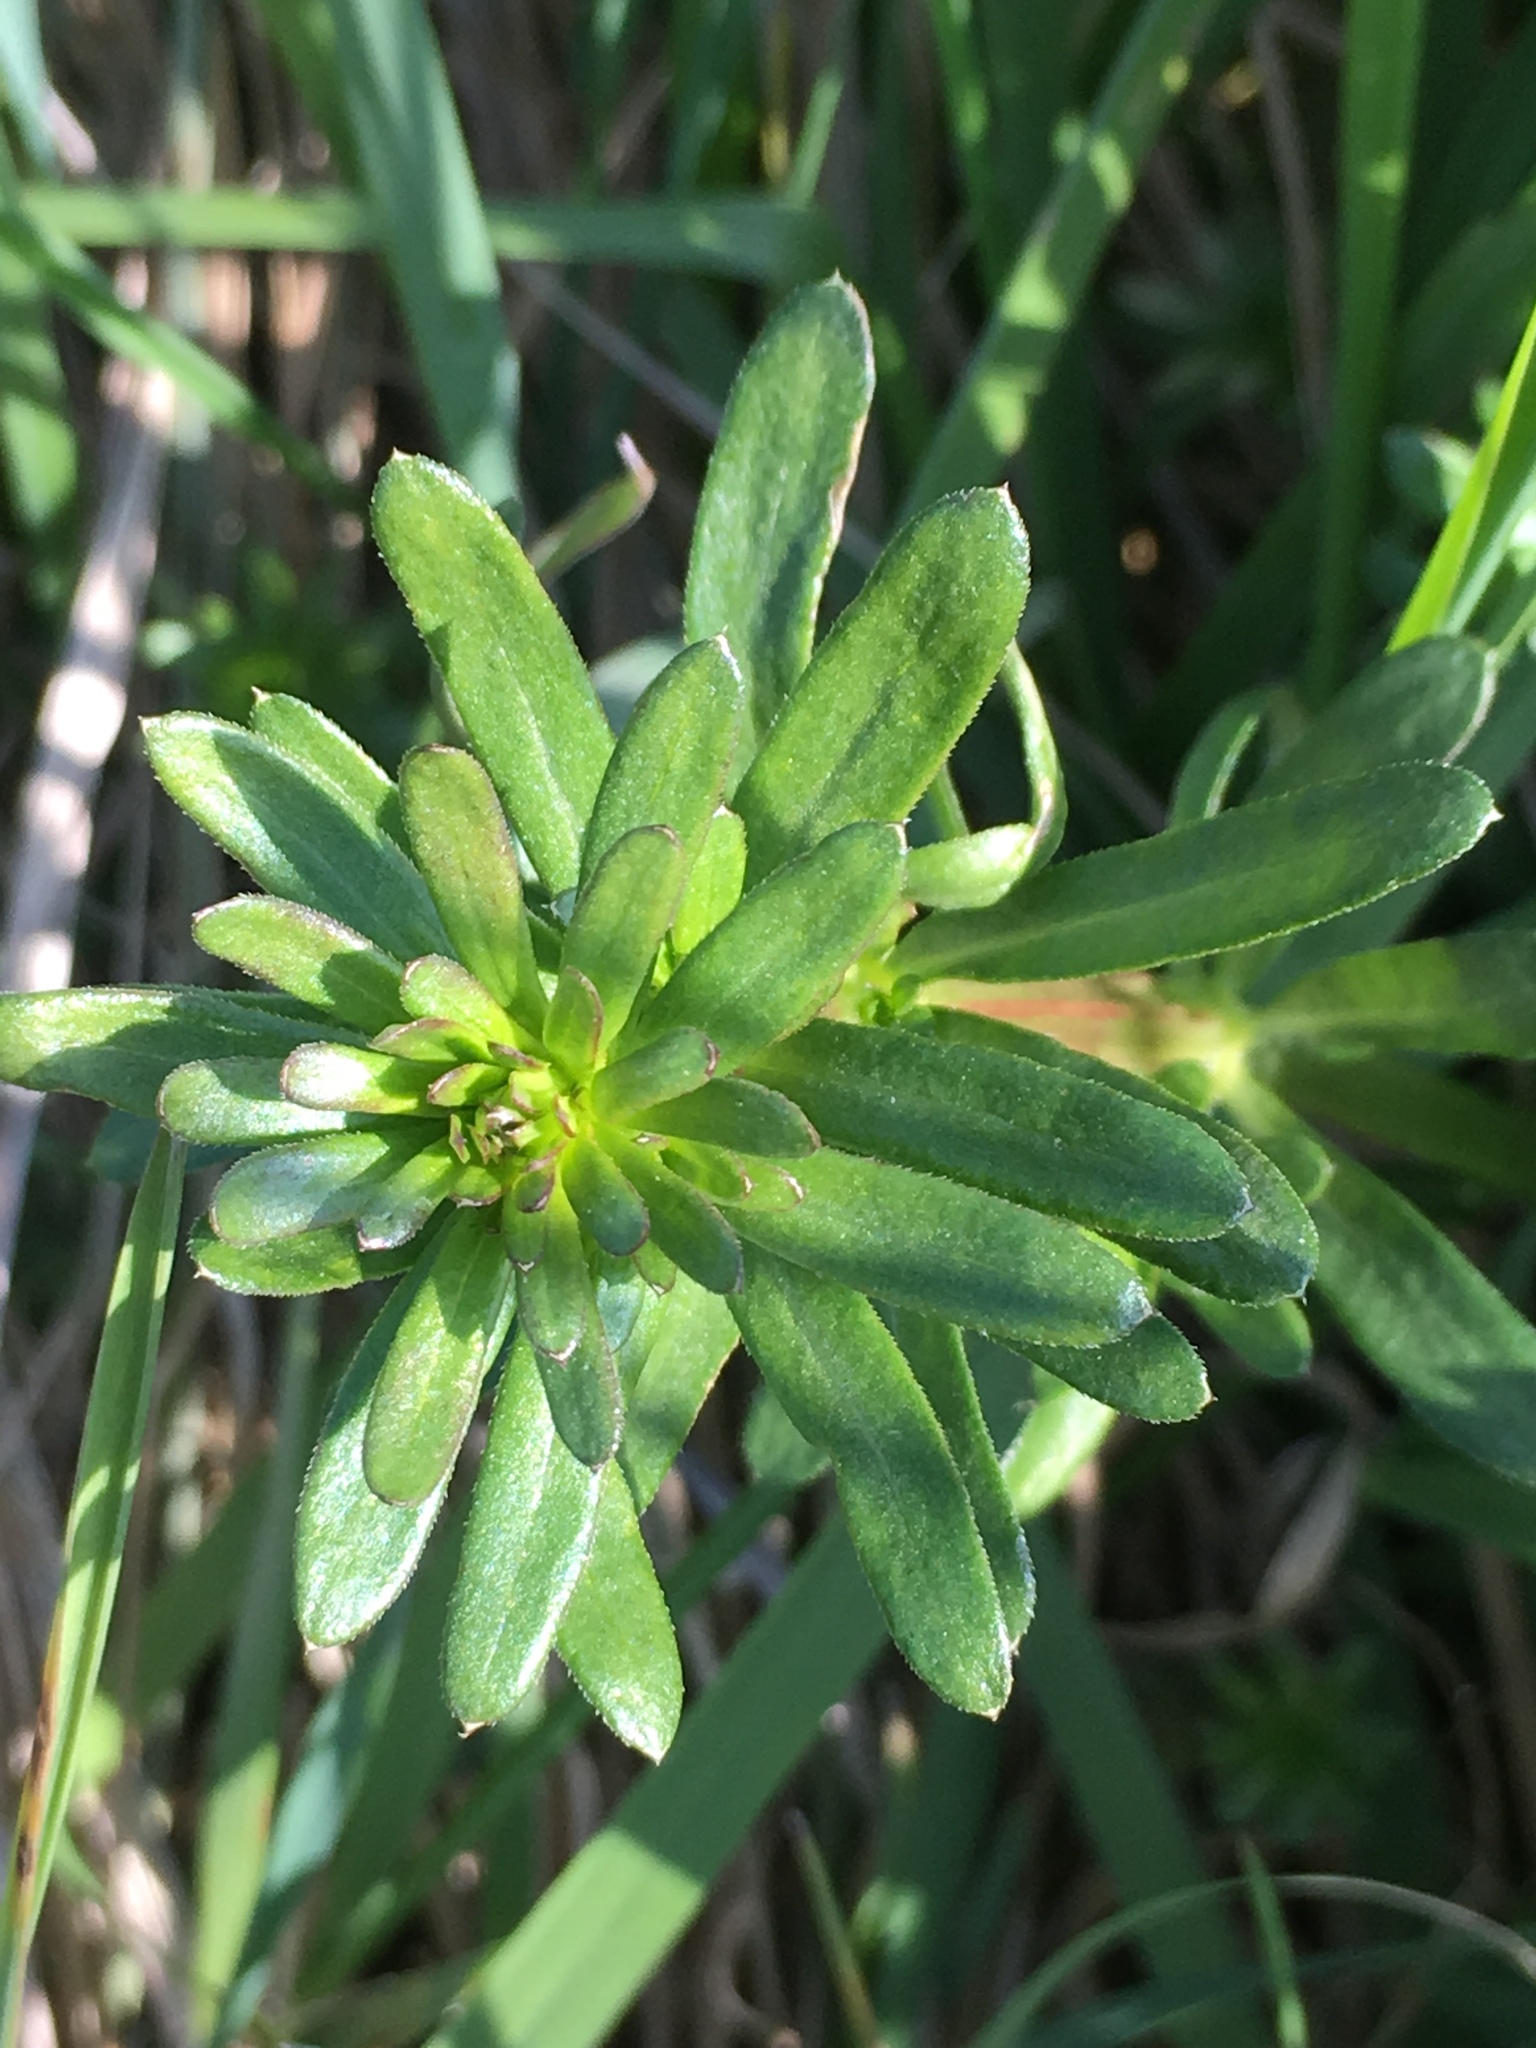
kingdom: Plantae
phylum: Tracheophyta
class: Magnoliopsida
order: Gentianales
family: Rubiaceae
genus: Galium
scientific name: Galium mollugo
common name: Hedge bedstraw
